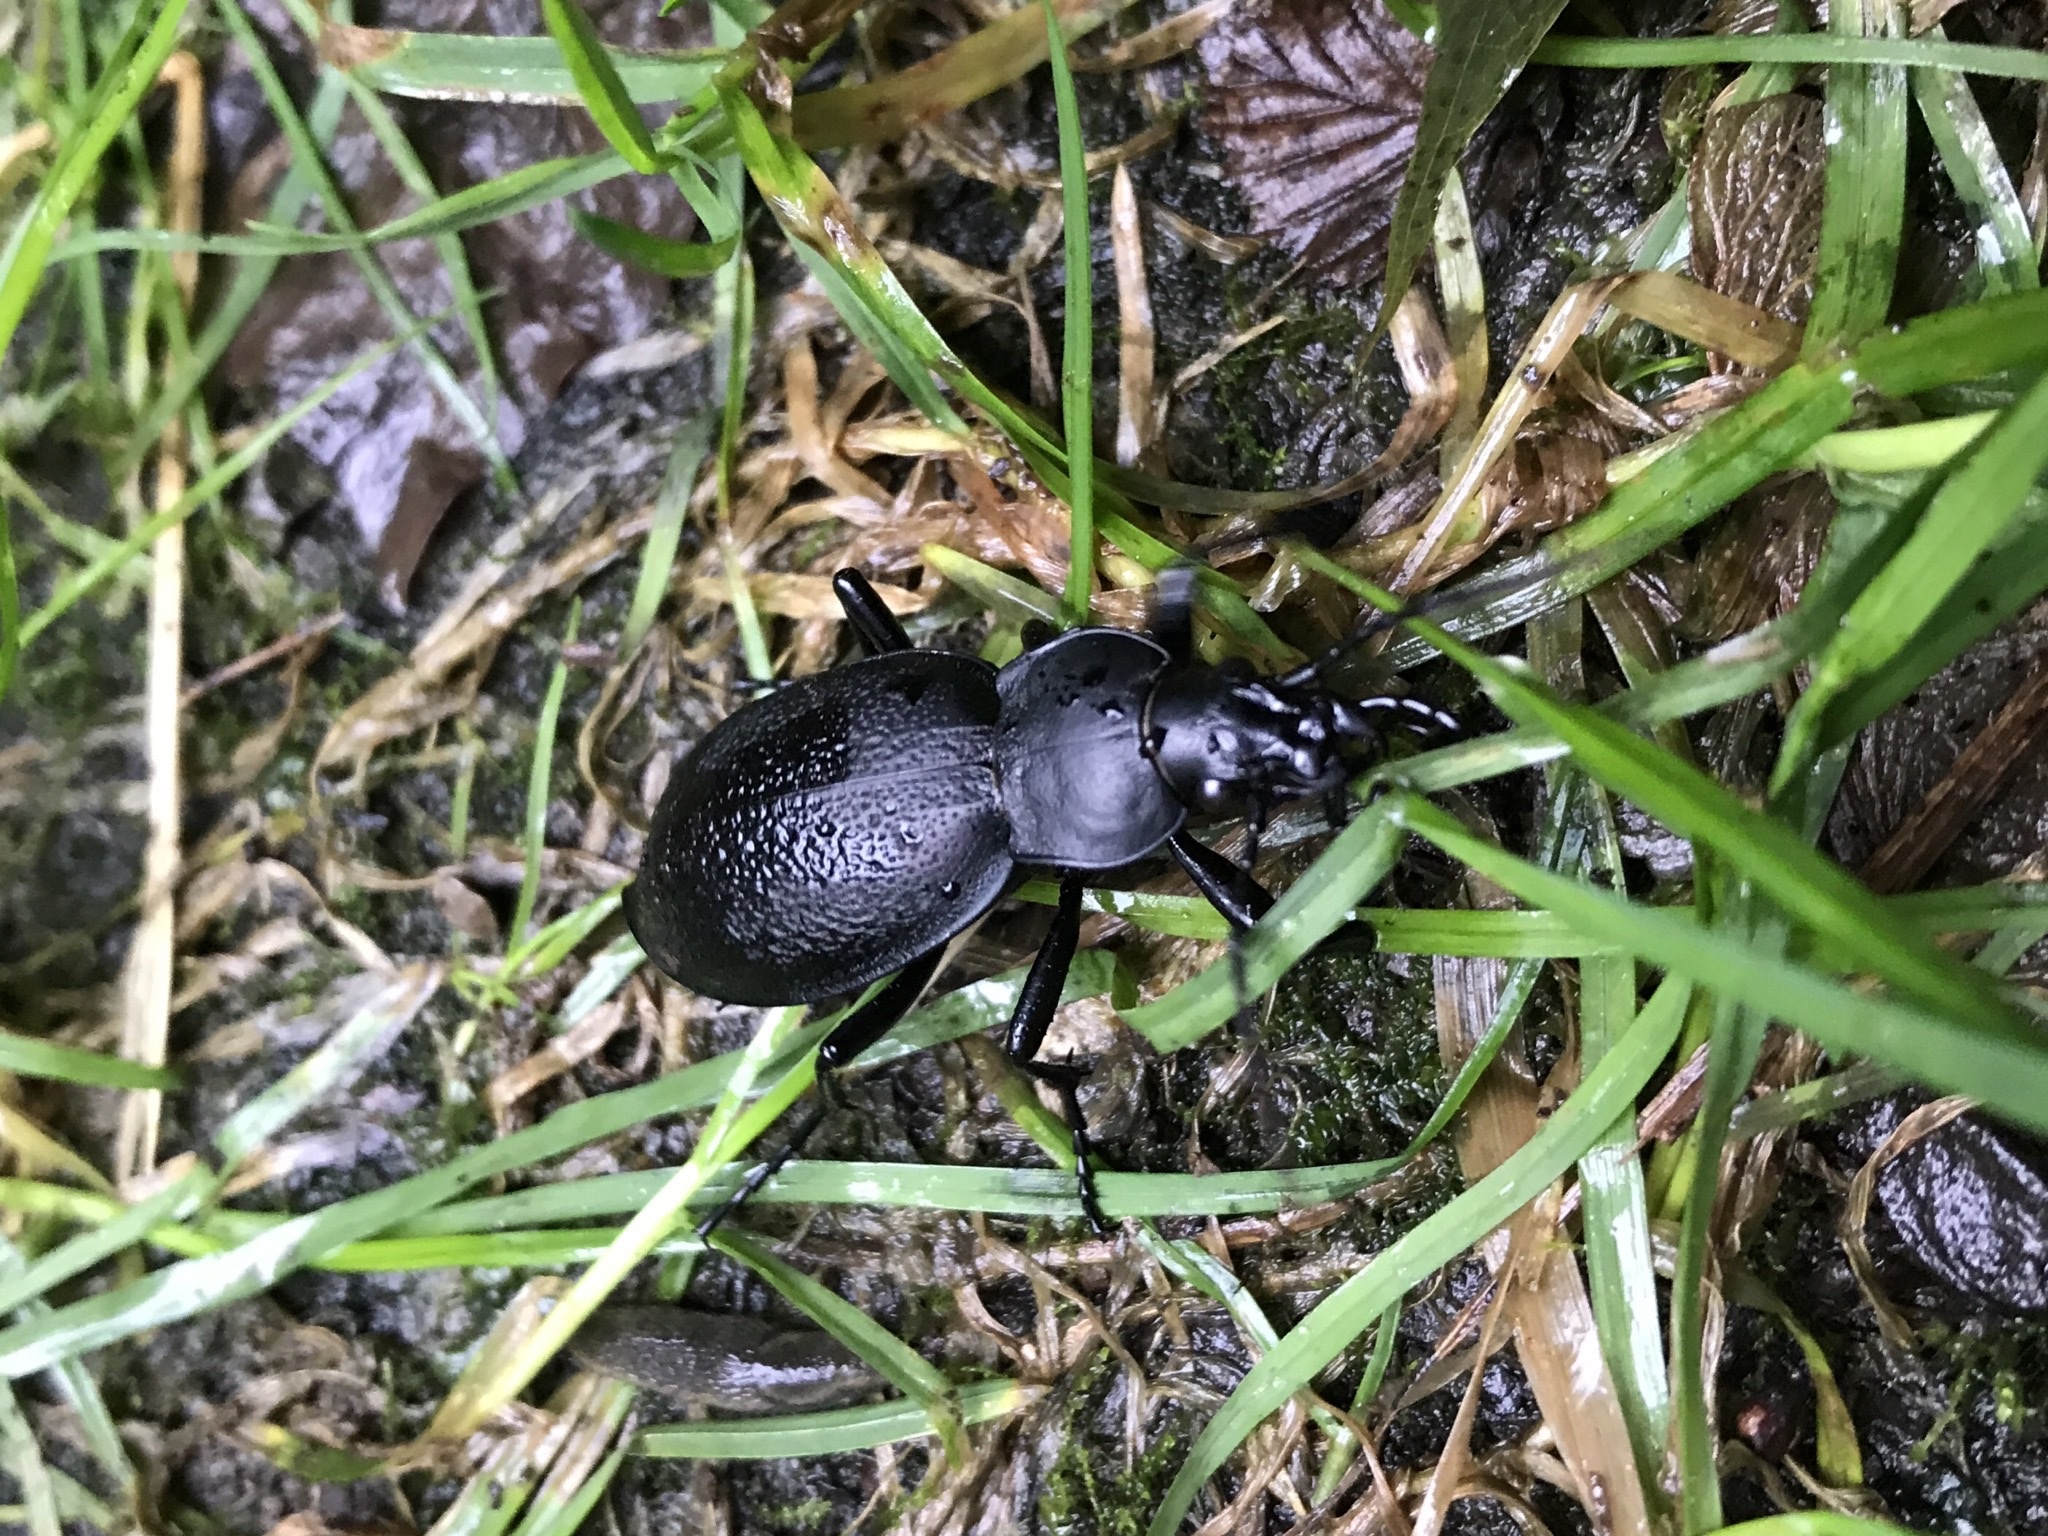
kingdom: Animalia
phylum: Arthropoda
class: Insecta
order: Coleoptera
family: Carabidae
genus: Carabus
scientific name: Carabus coriaceus
